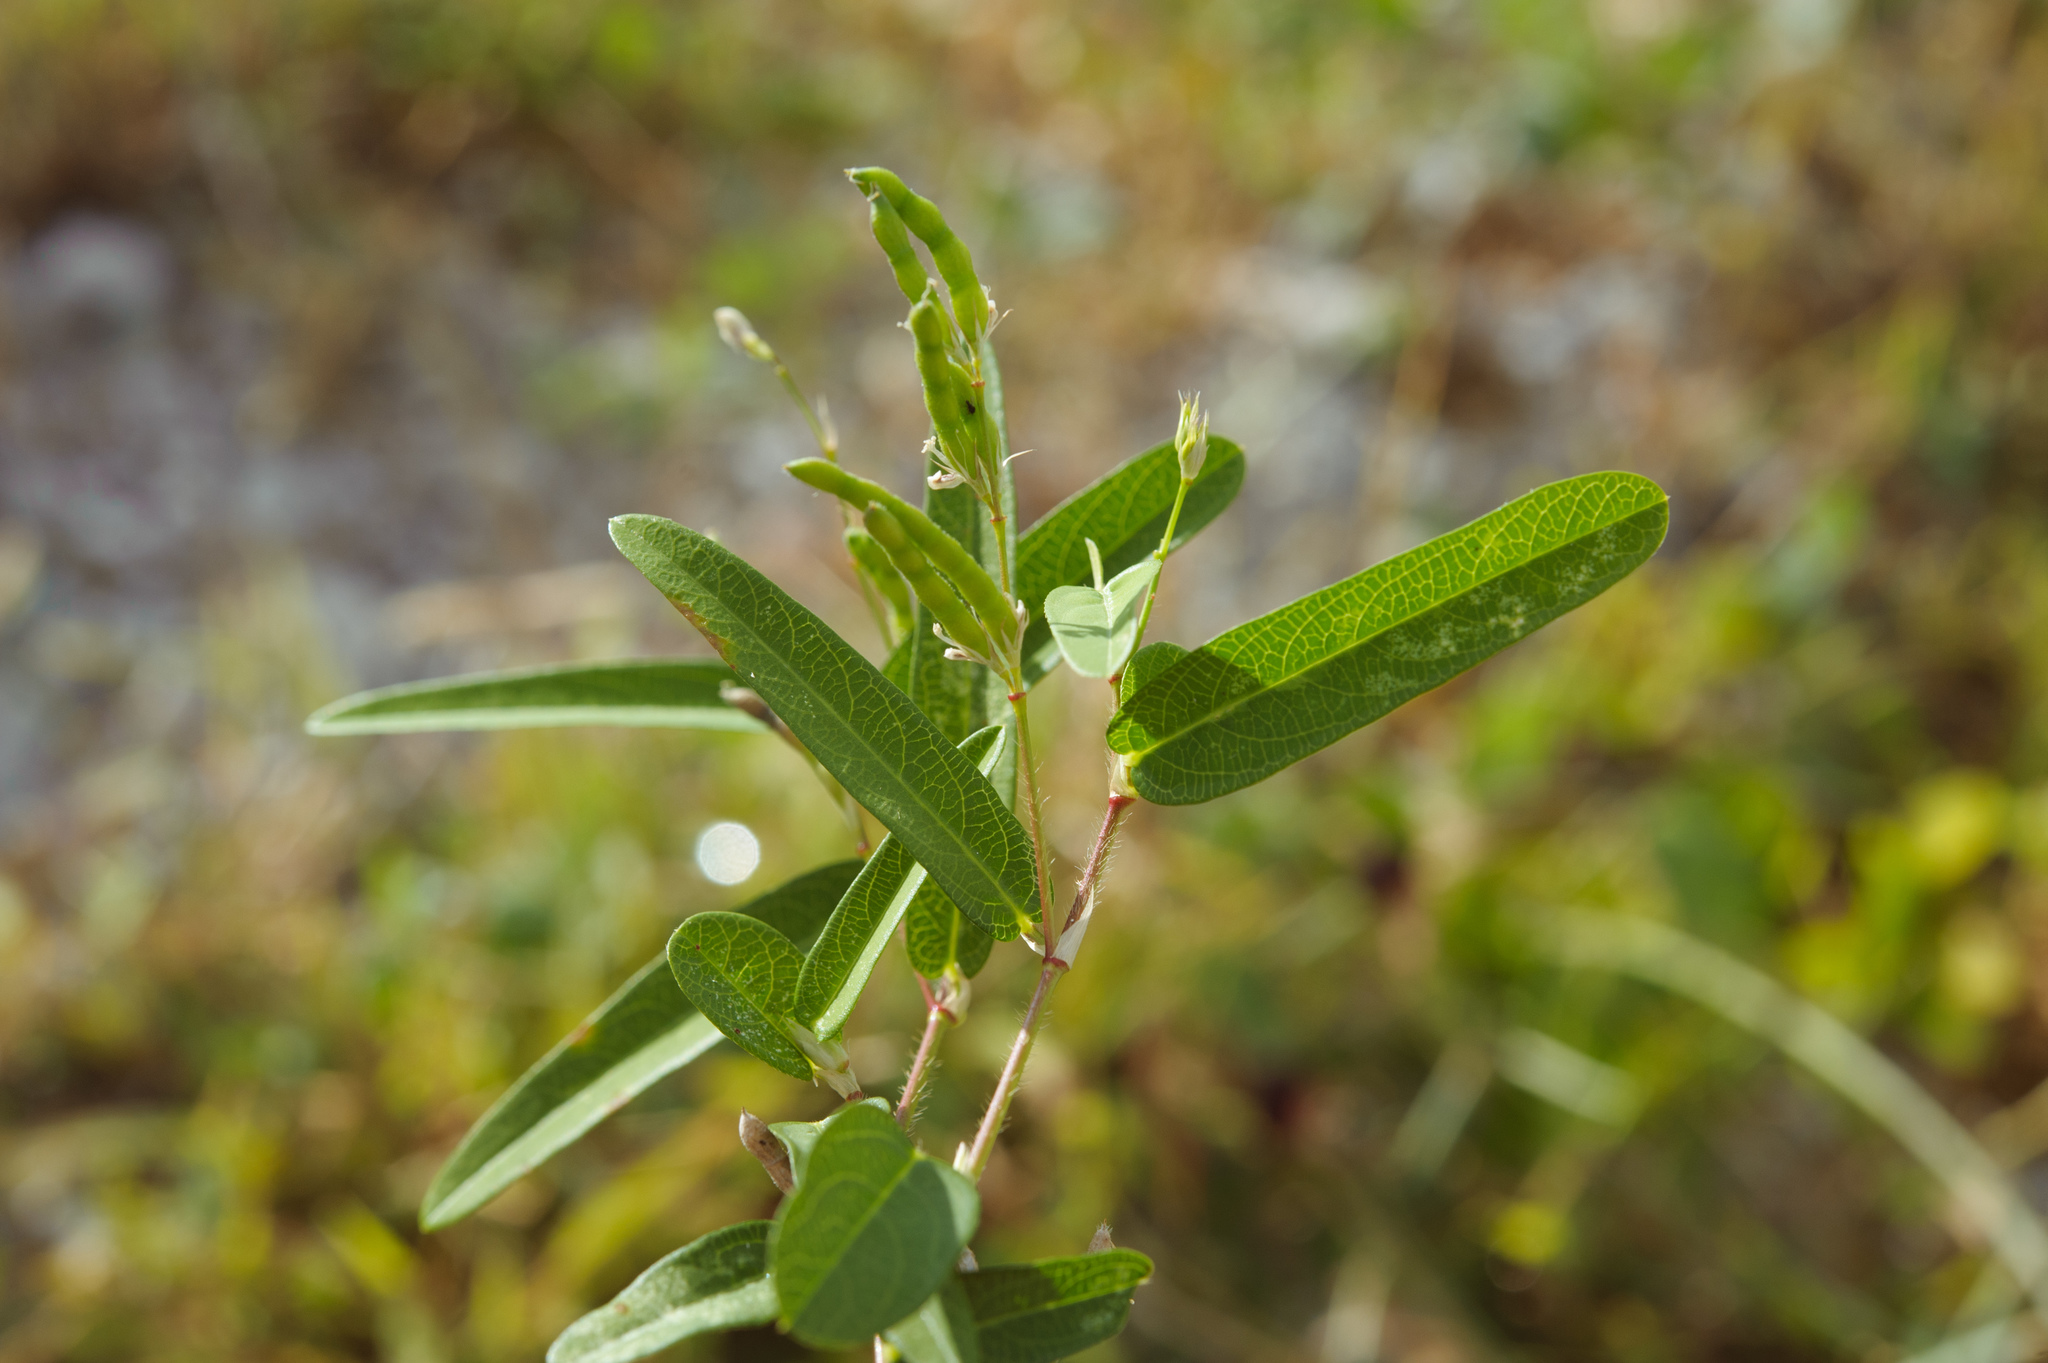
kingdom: Plantae
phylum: Tracheophyta
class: Magnoliopsida
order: Fabales
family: Fabaceae
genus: Alysicarpus
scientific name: Alysicarpus bupleurifolius
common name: Sweet alys
